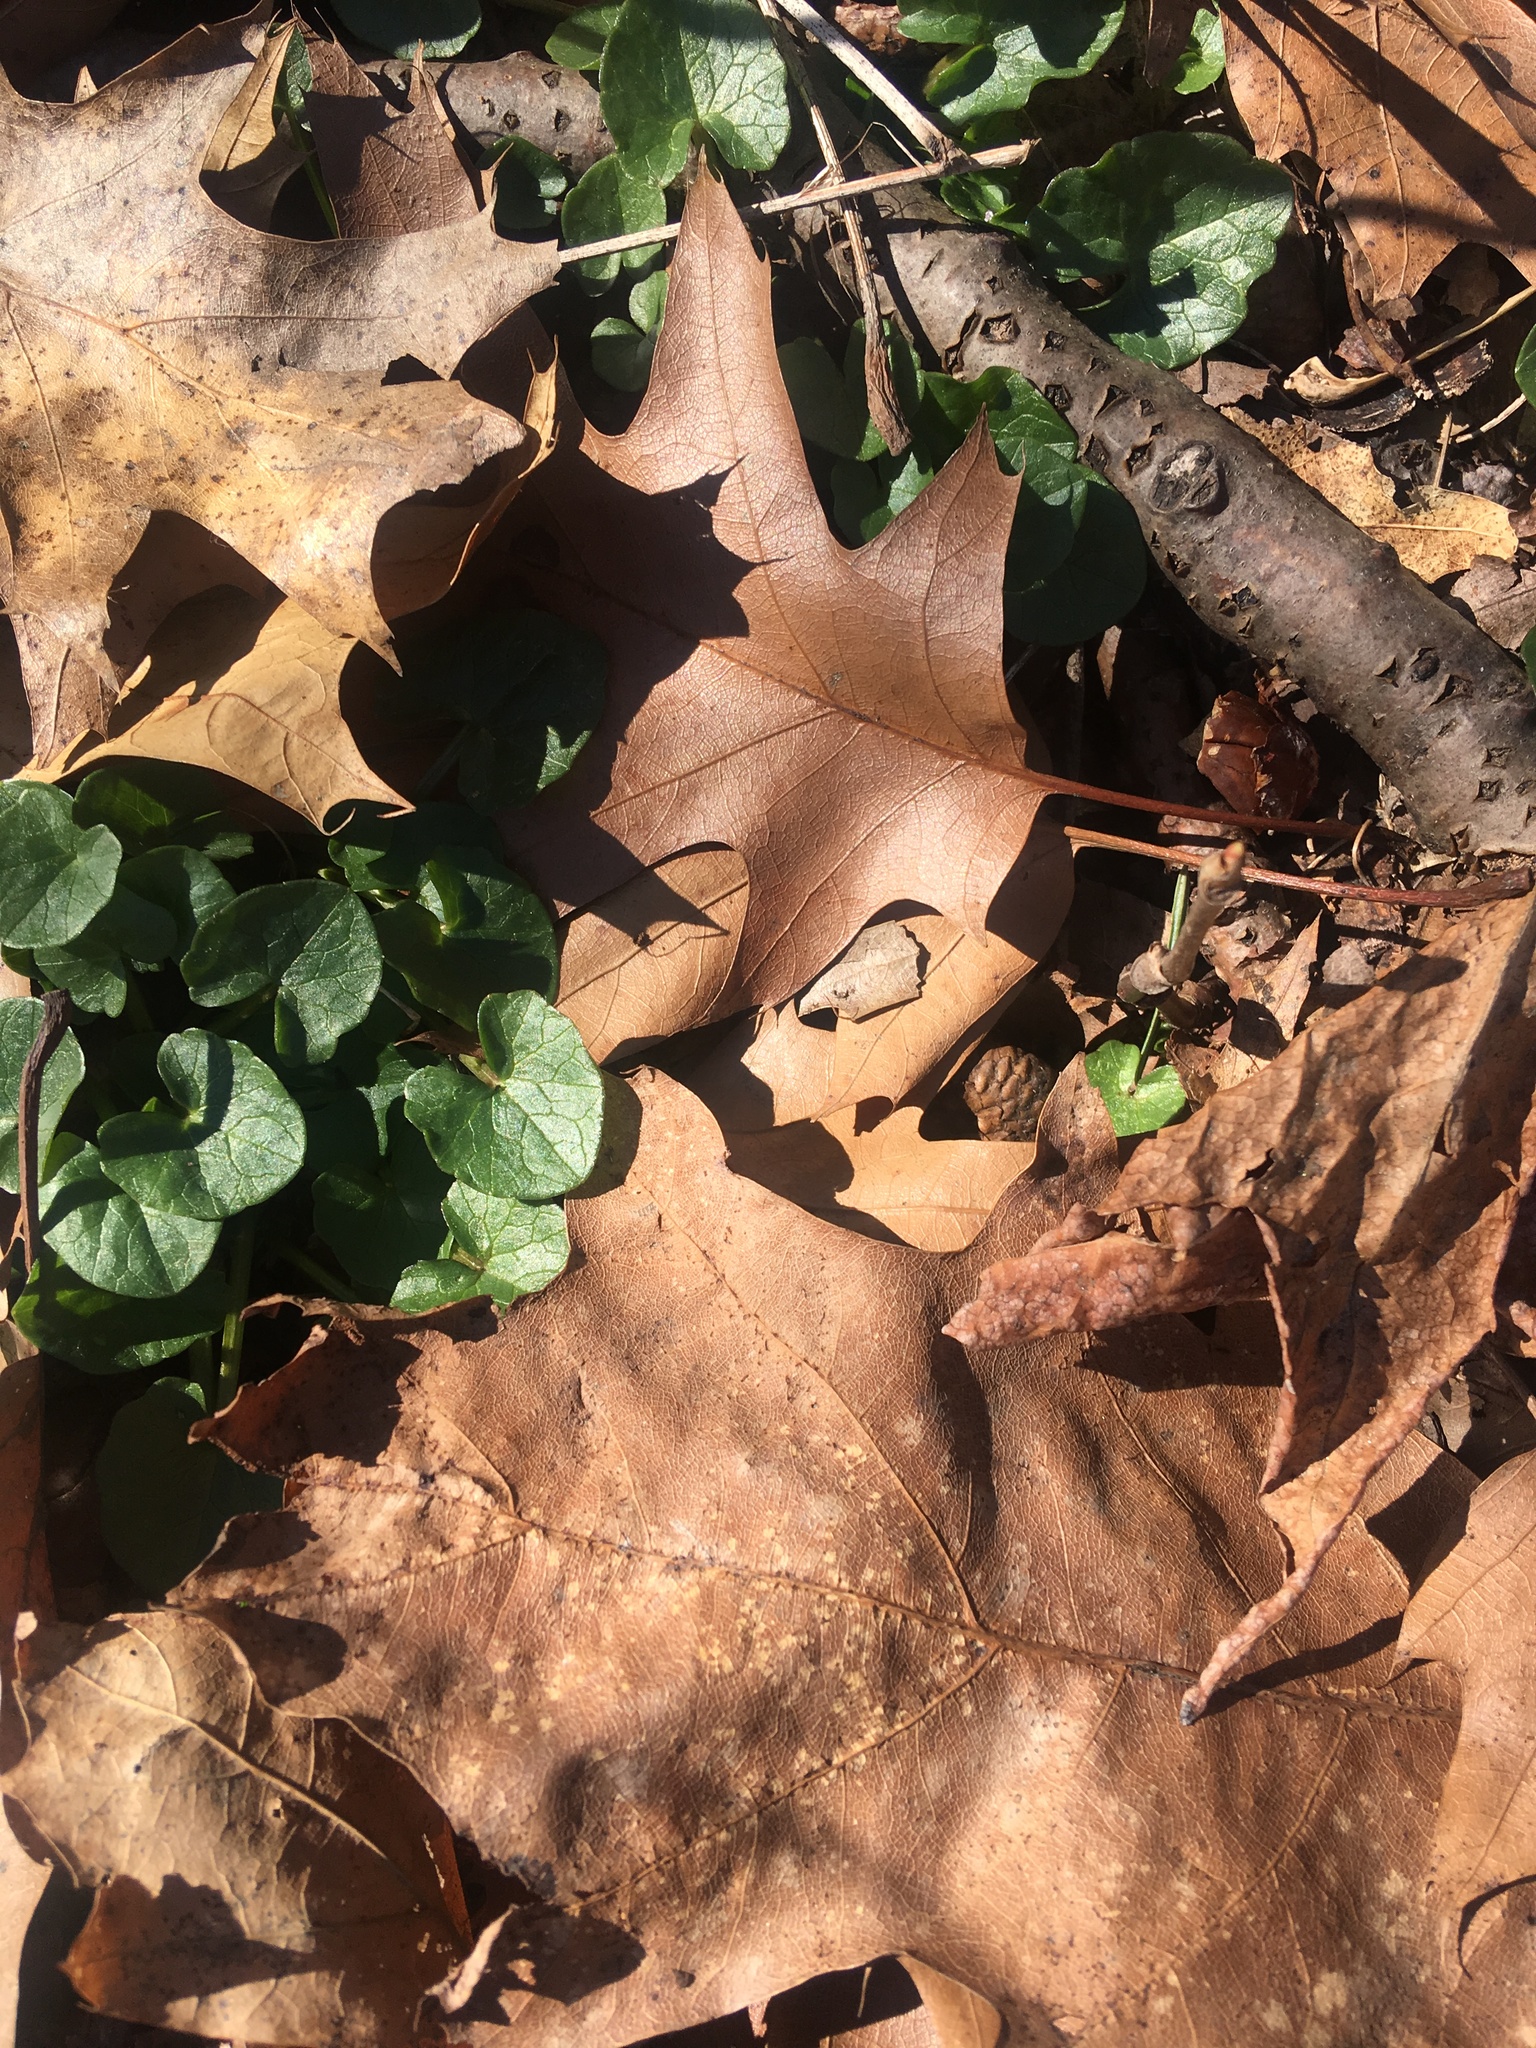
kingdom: Plantae
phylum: Tracheophyta
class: Magnoliopsida
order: Ranunculales
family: Ranunculaceae
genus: Ficaria
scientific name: Ficaria verna
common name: Lesser celandine
